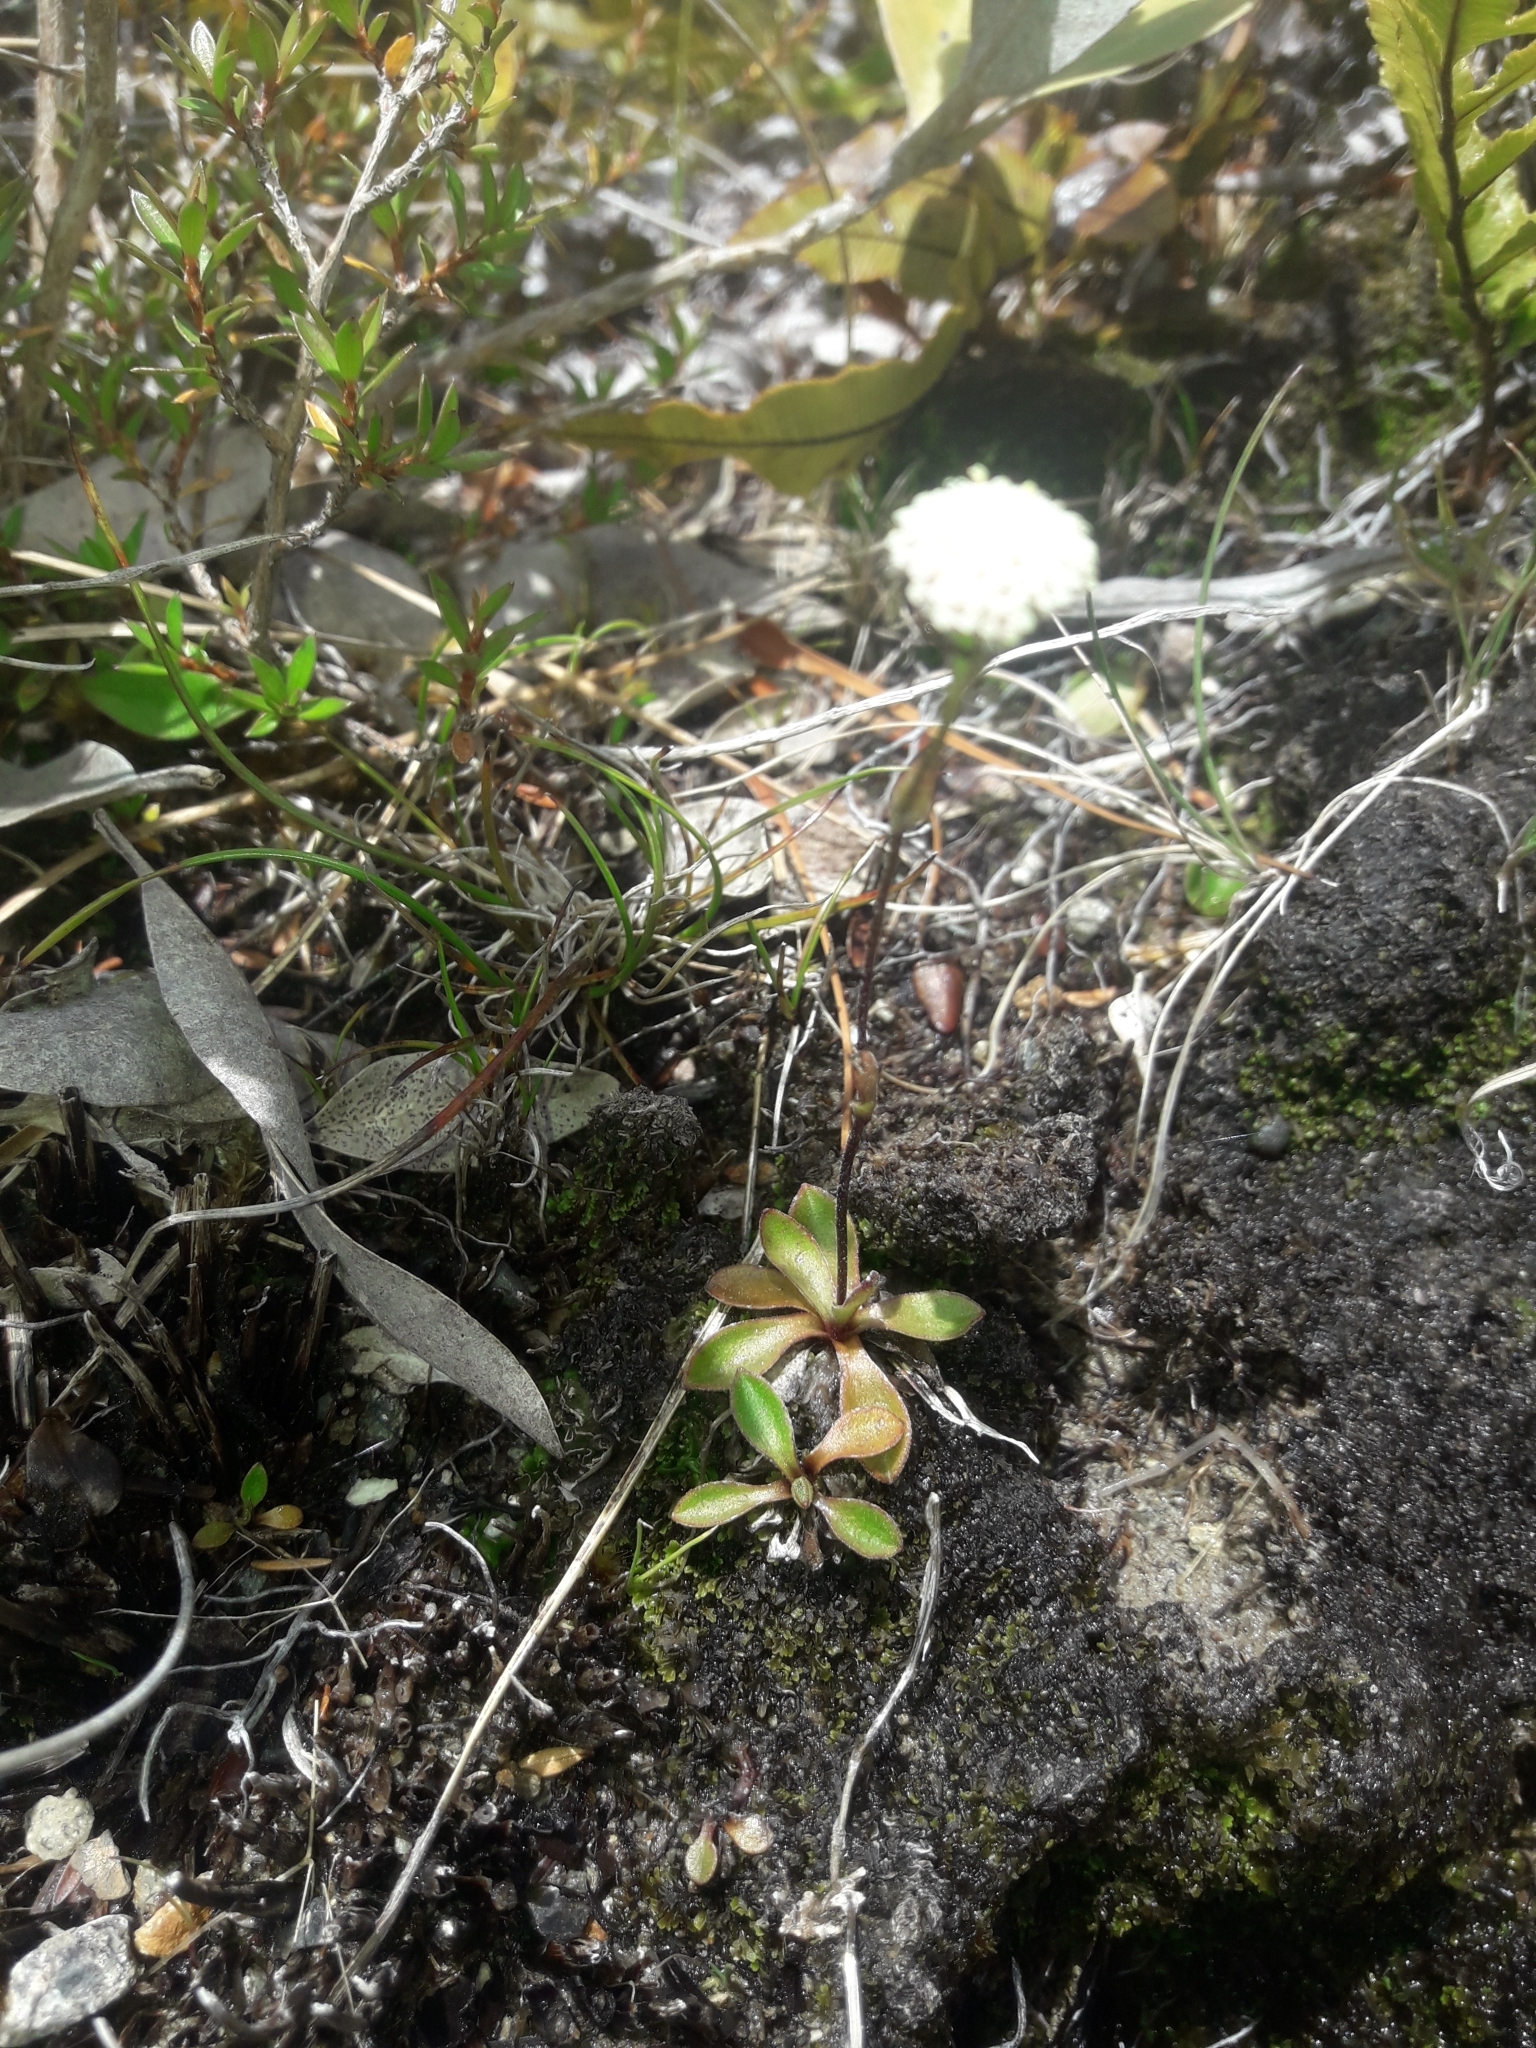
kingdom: Plantae
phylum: Tracheophyta
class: Magnoliopsida
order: Asterales
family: Asteraceae
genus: Craspedia
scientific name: Craspedia uniflora
